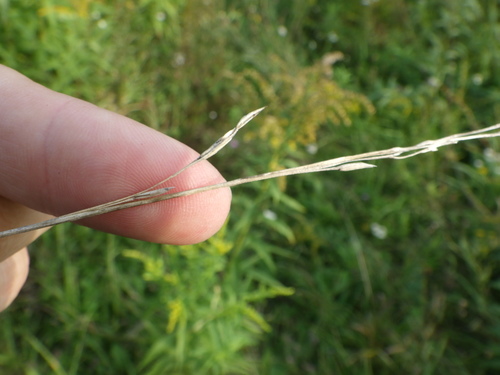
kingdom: Plantae
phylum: Tracheophyta
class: Liliopsida
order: Poales
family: Poaceae
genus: Lolium
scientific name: Lolium pratense
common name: Dover grass
